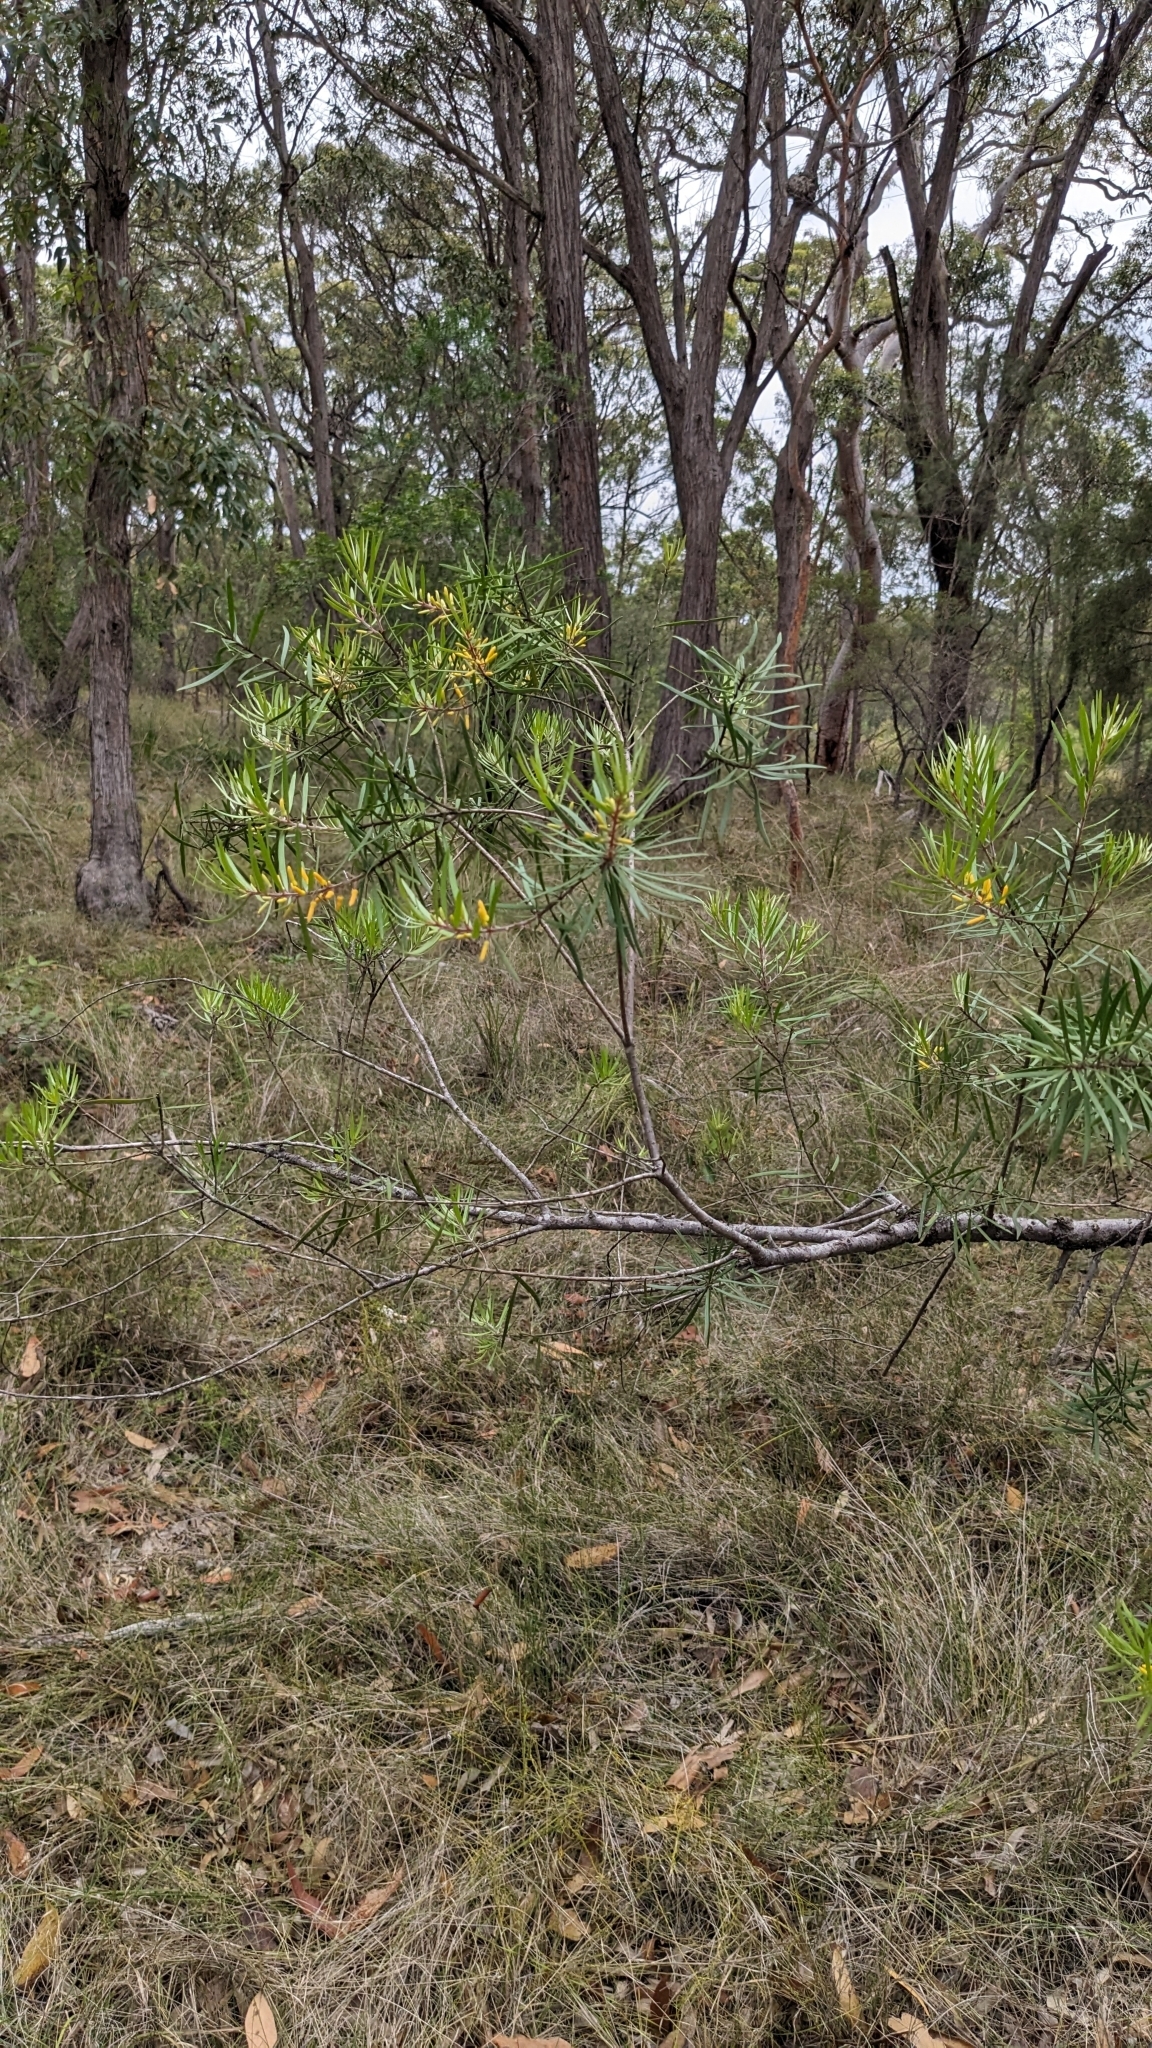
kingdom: Plantae
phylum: Tracheophyta
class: Magnoliopsida
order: Proteales
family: Proteaceae
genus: Persoonia
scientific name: Persoonia linearis
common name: Narrow-leaf geebung
